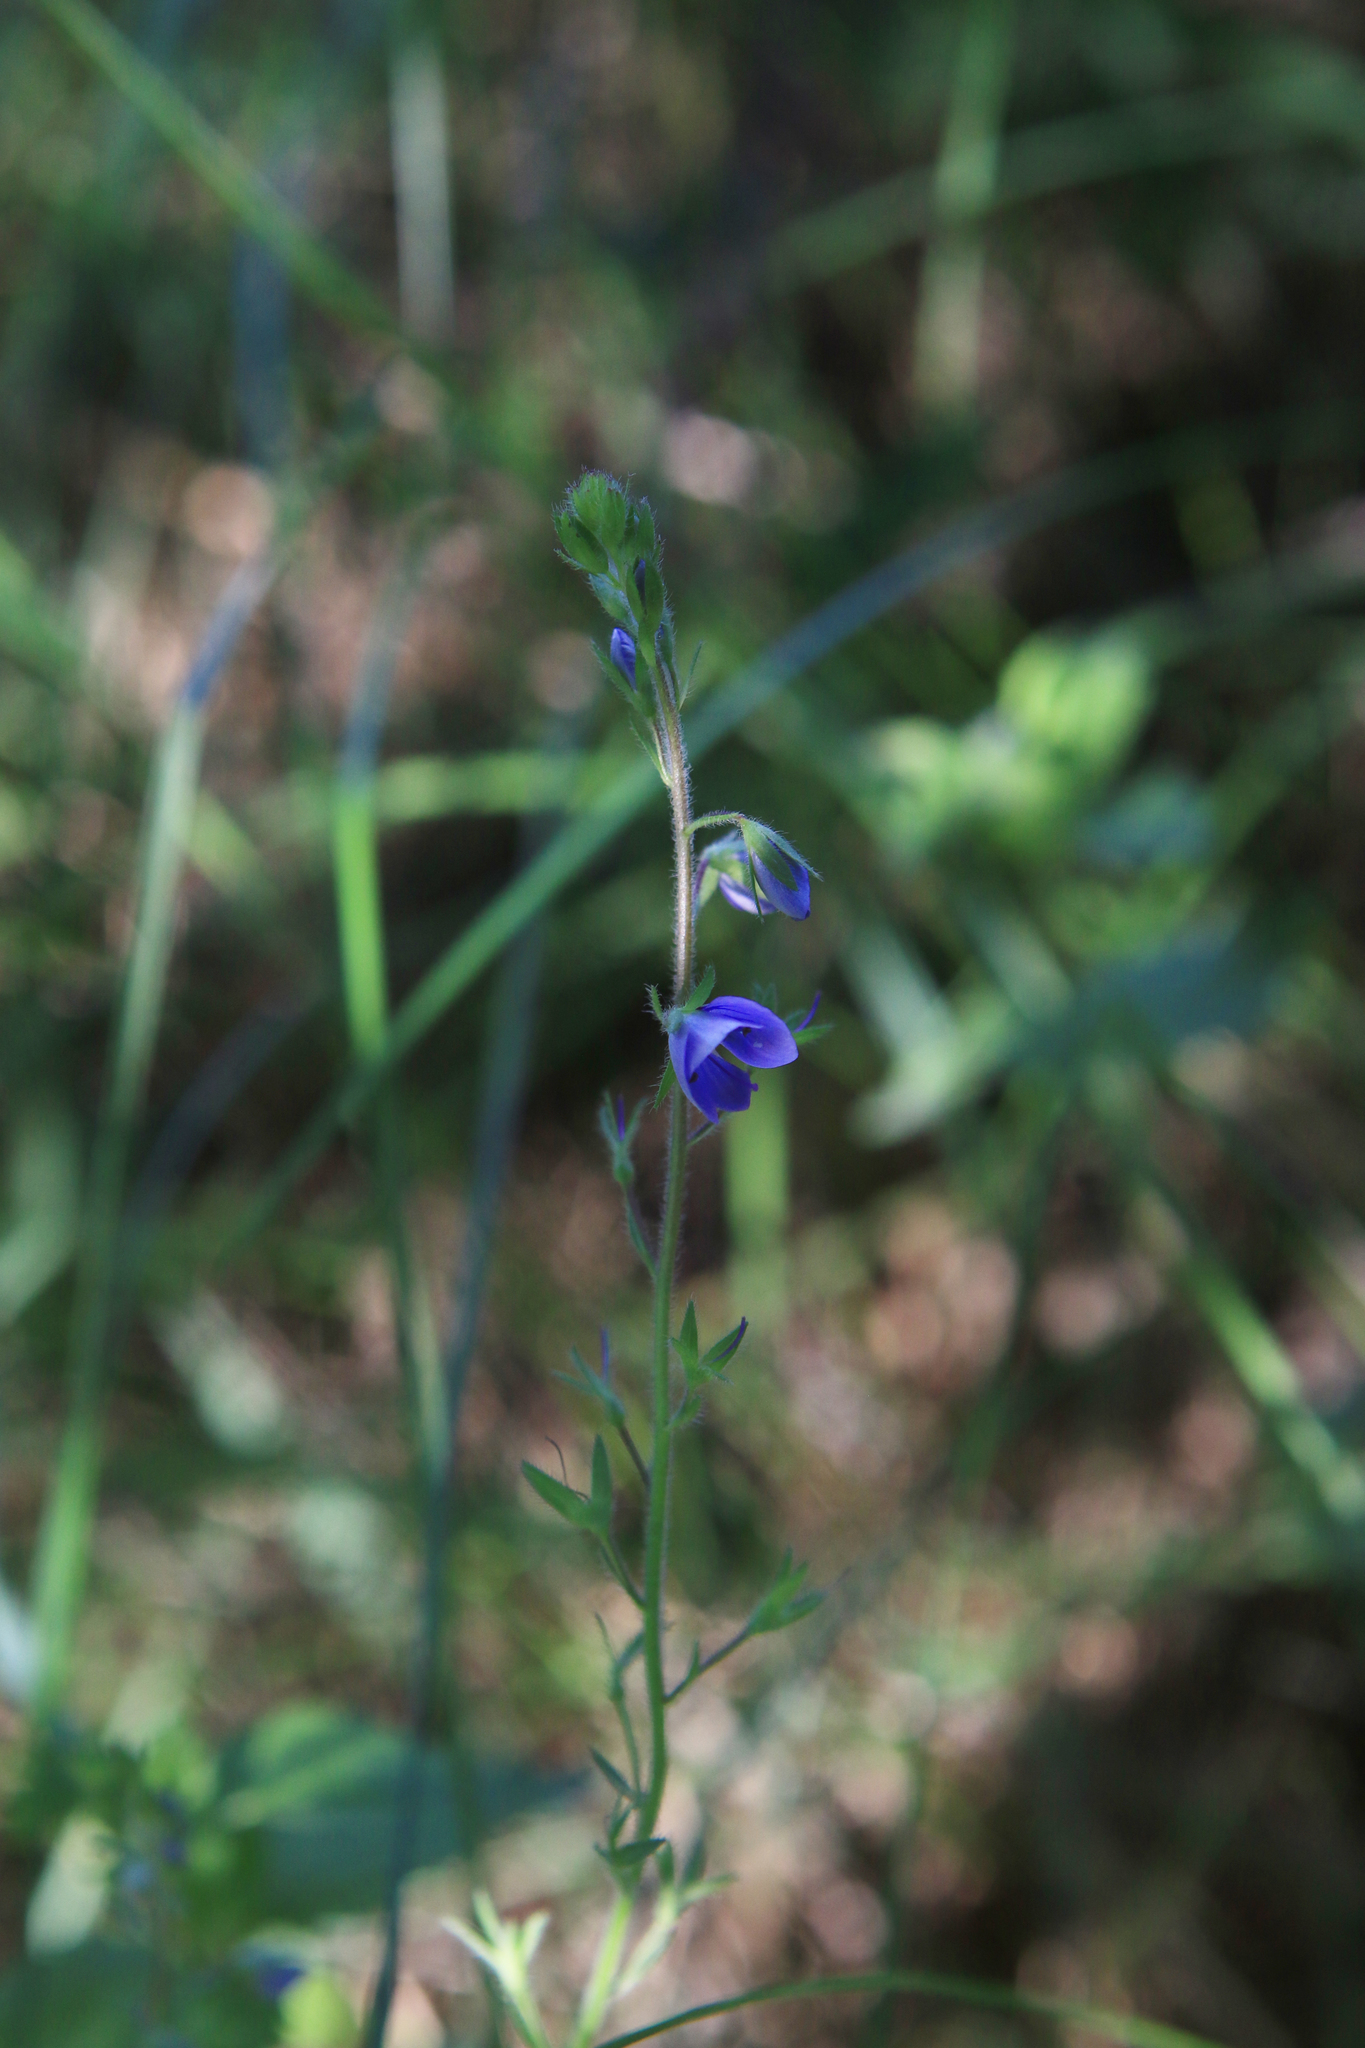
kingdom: Plantae
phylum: Tracheophyta
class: Magnoliopsida
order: Lamiales
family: Plantaginaceae
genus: Veronica
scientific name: Veronica krylovii
